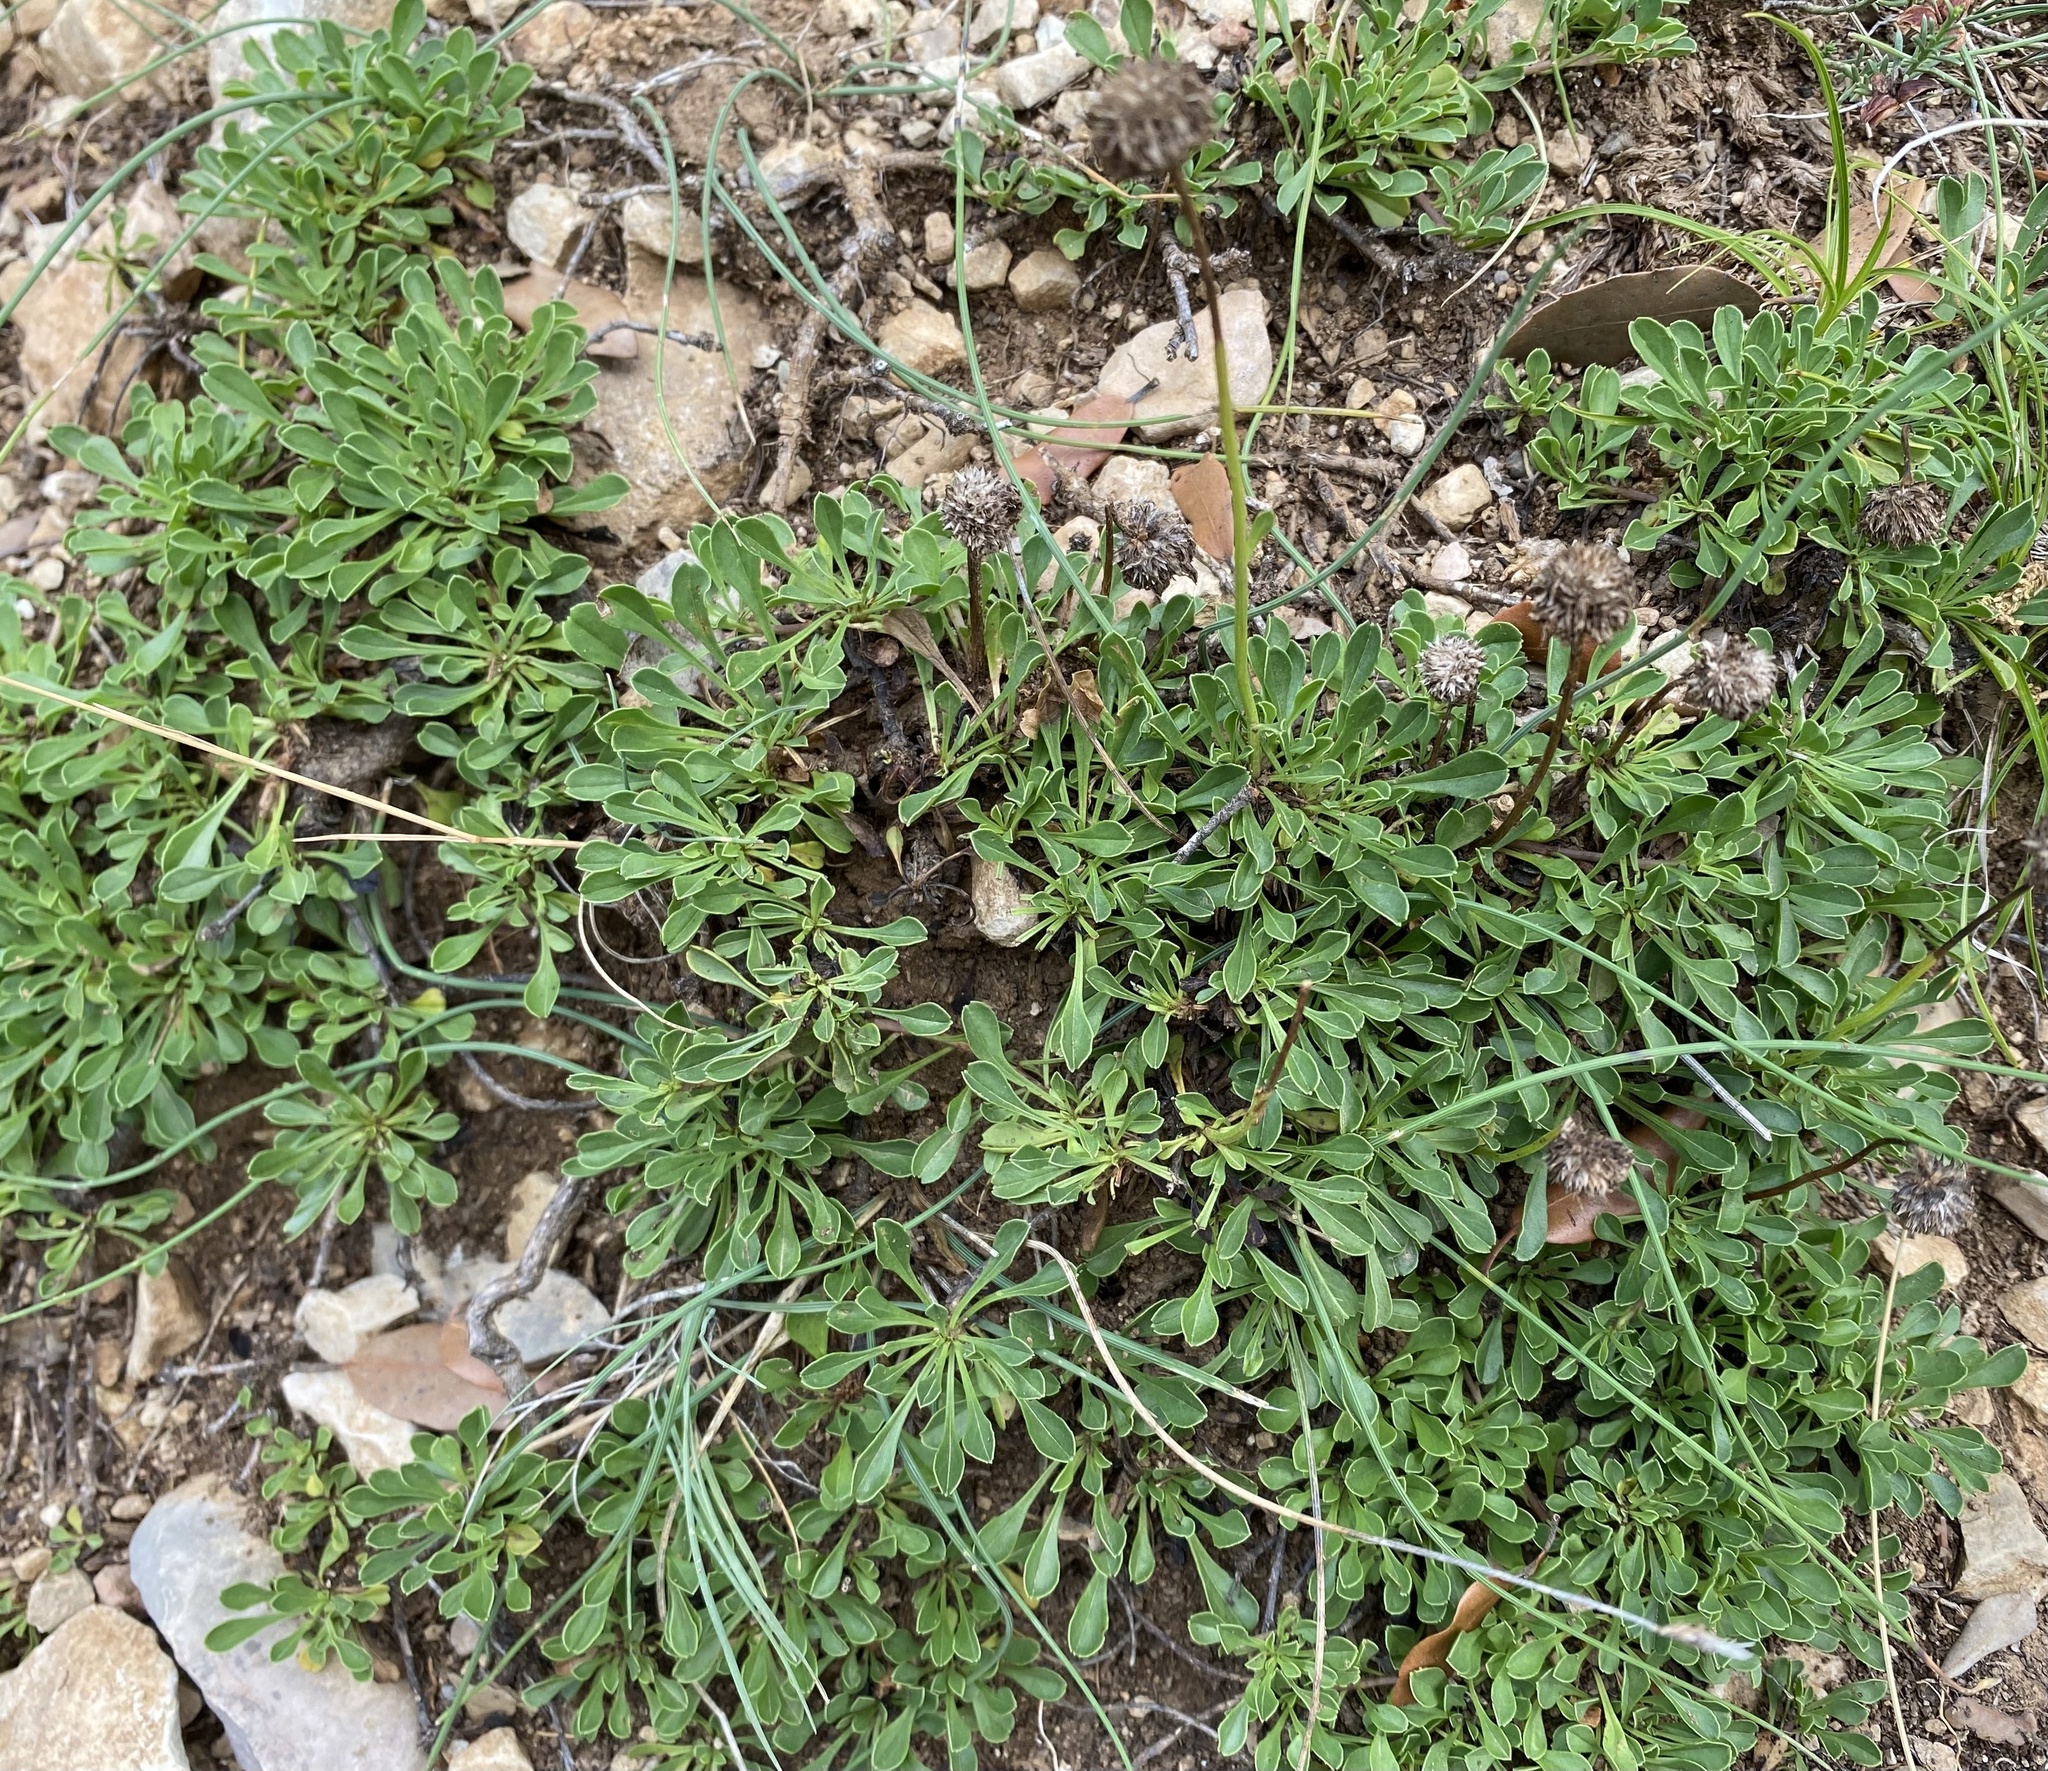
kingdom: Plantae
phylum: Tracheophyta
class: Magnoliopsida
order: Lamiales
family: Plantaginaceae
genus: Globularia
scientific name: Globularia cordifolia
